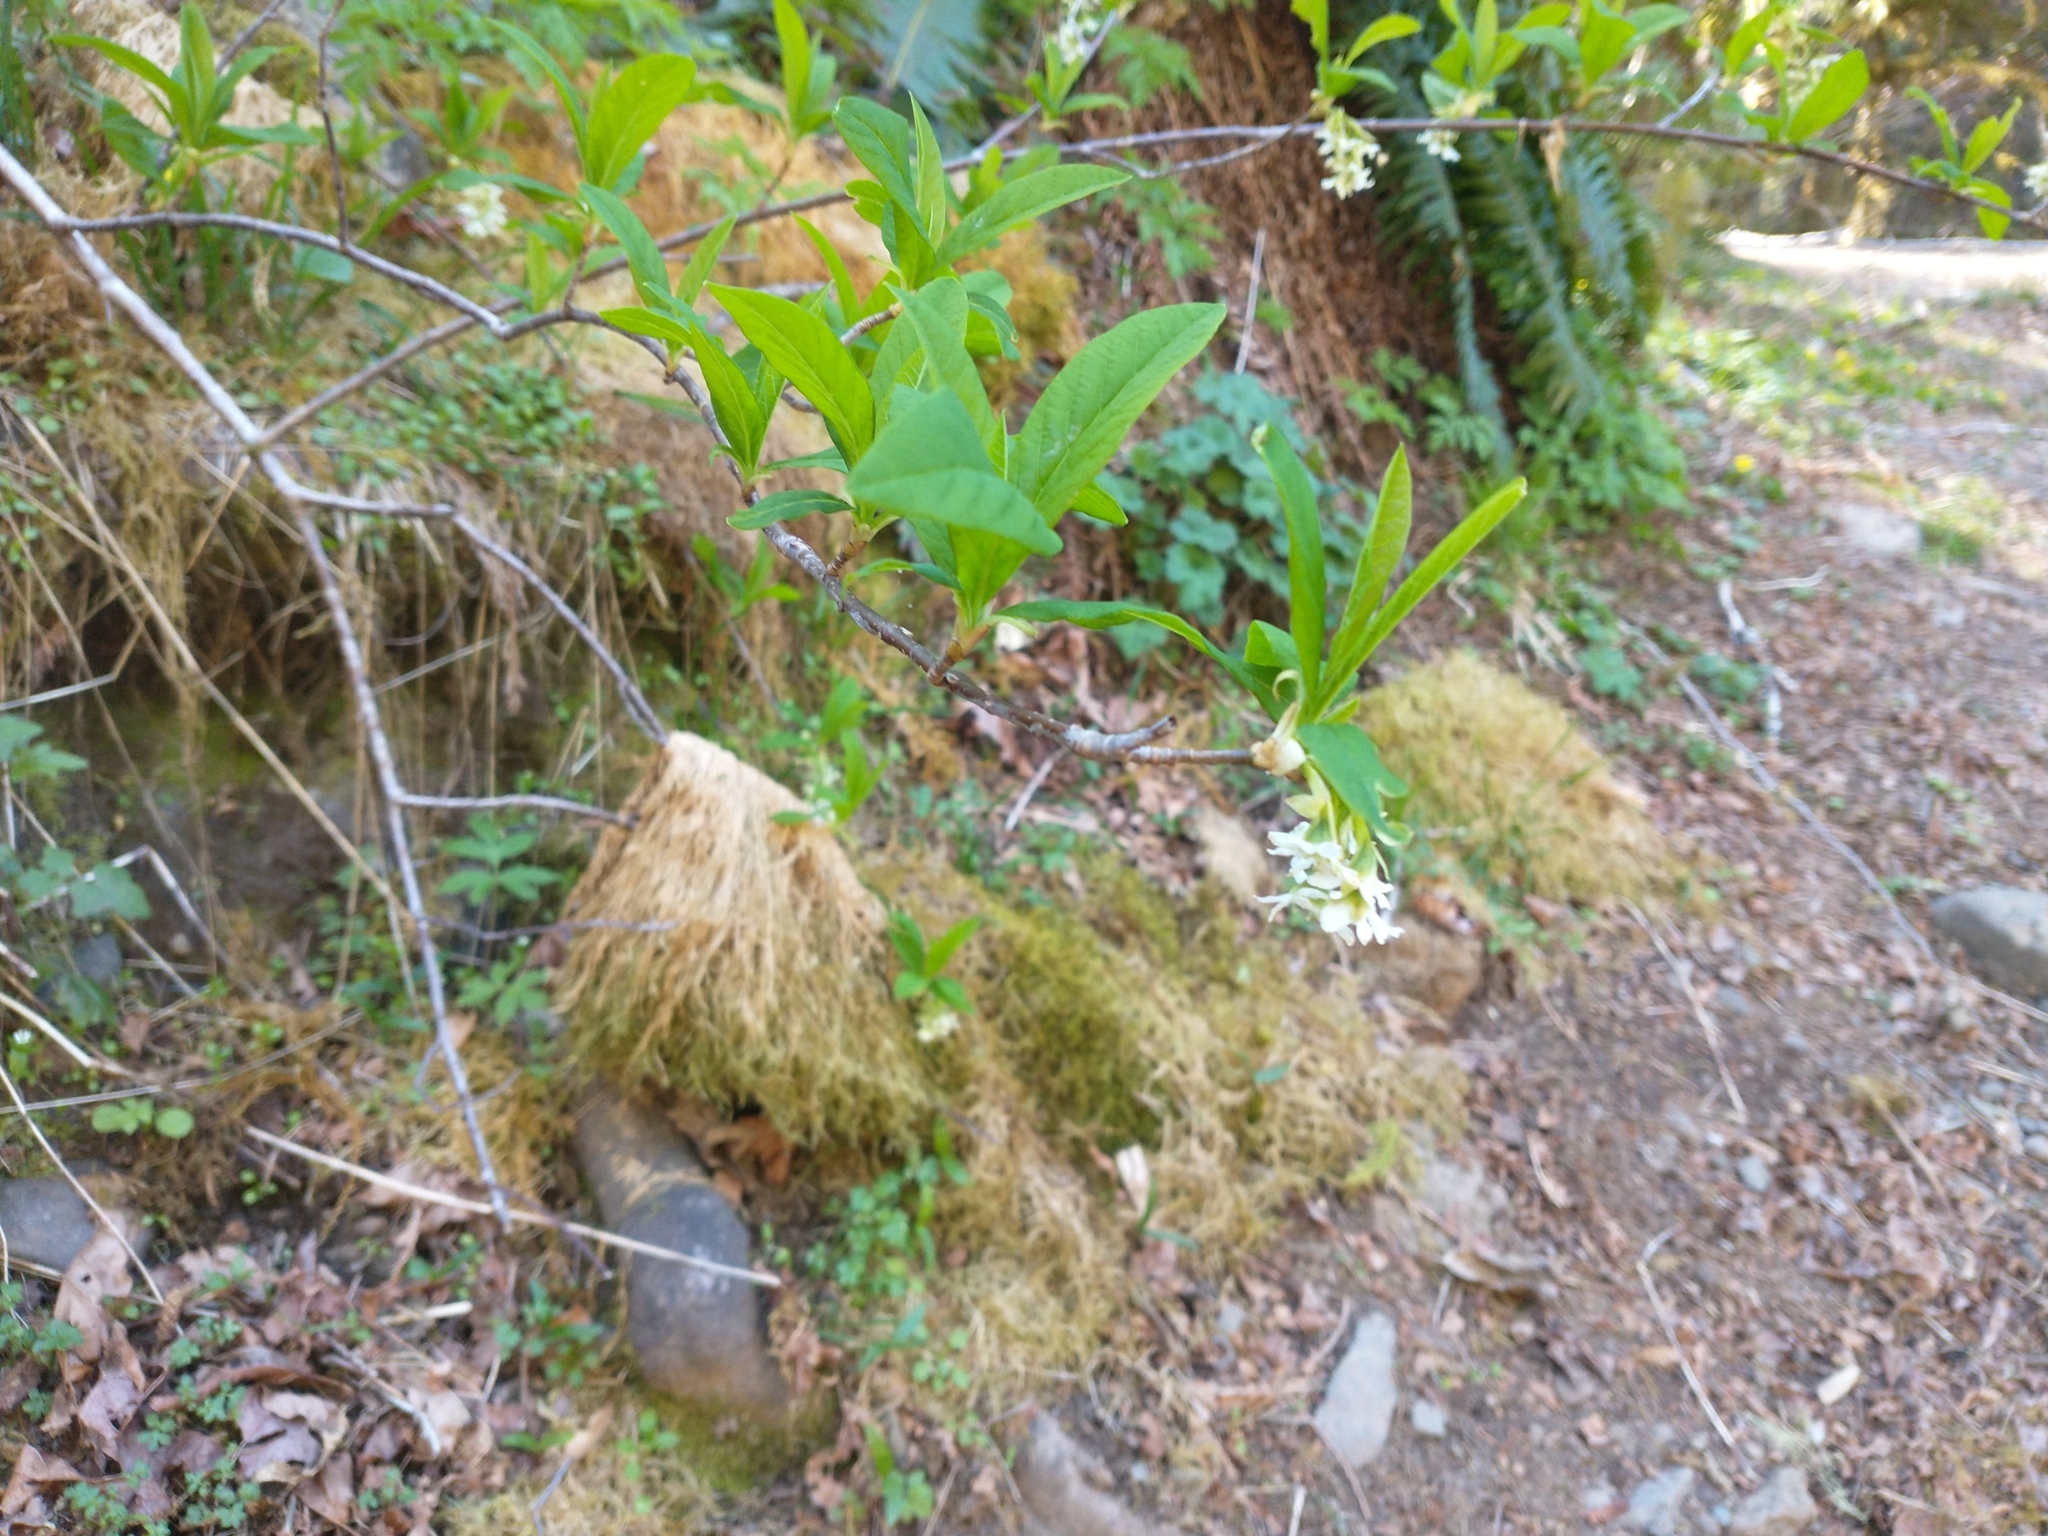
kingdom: Plantae
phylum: Tracheophyta
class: Magnoliopsida
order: Rosales
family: Rosaceae
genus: Oemleria
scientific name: Oemleria cerasiformis
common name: Osoberry
